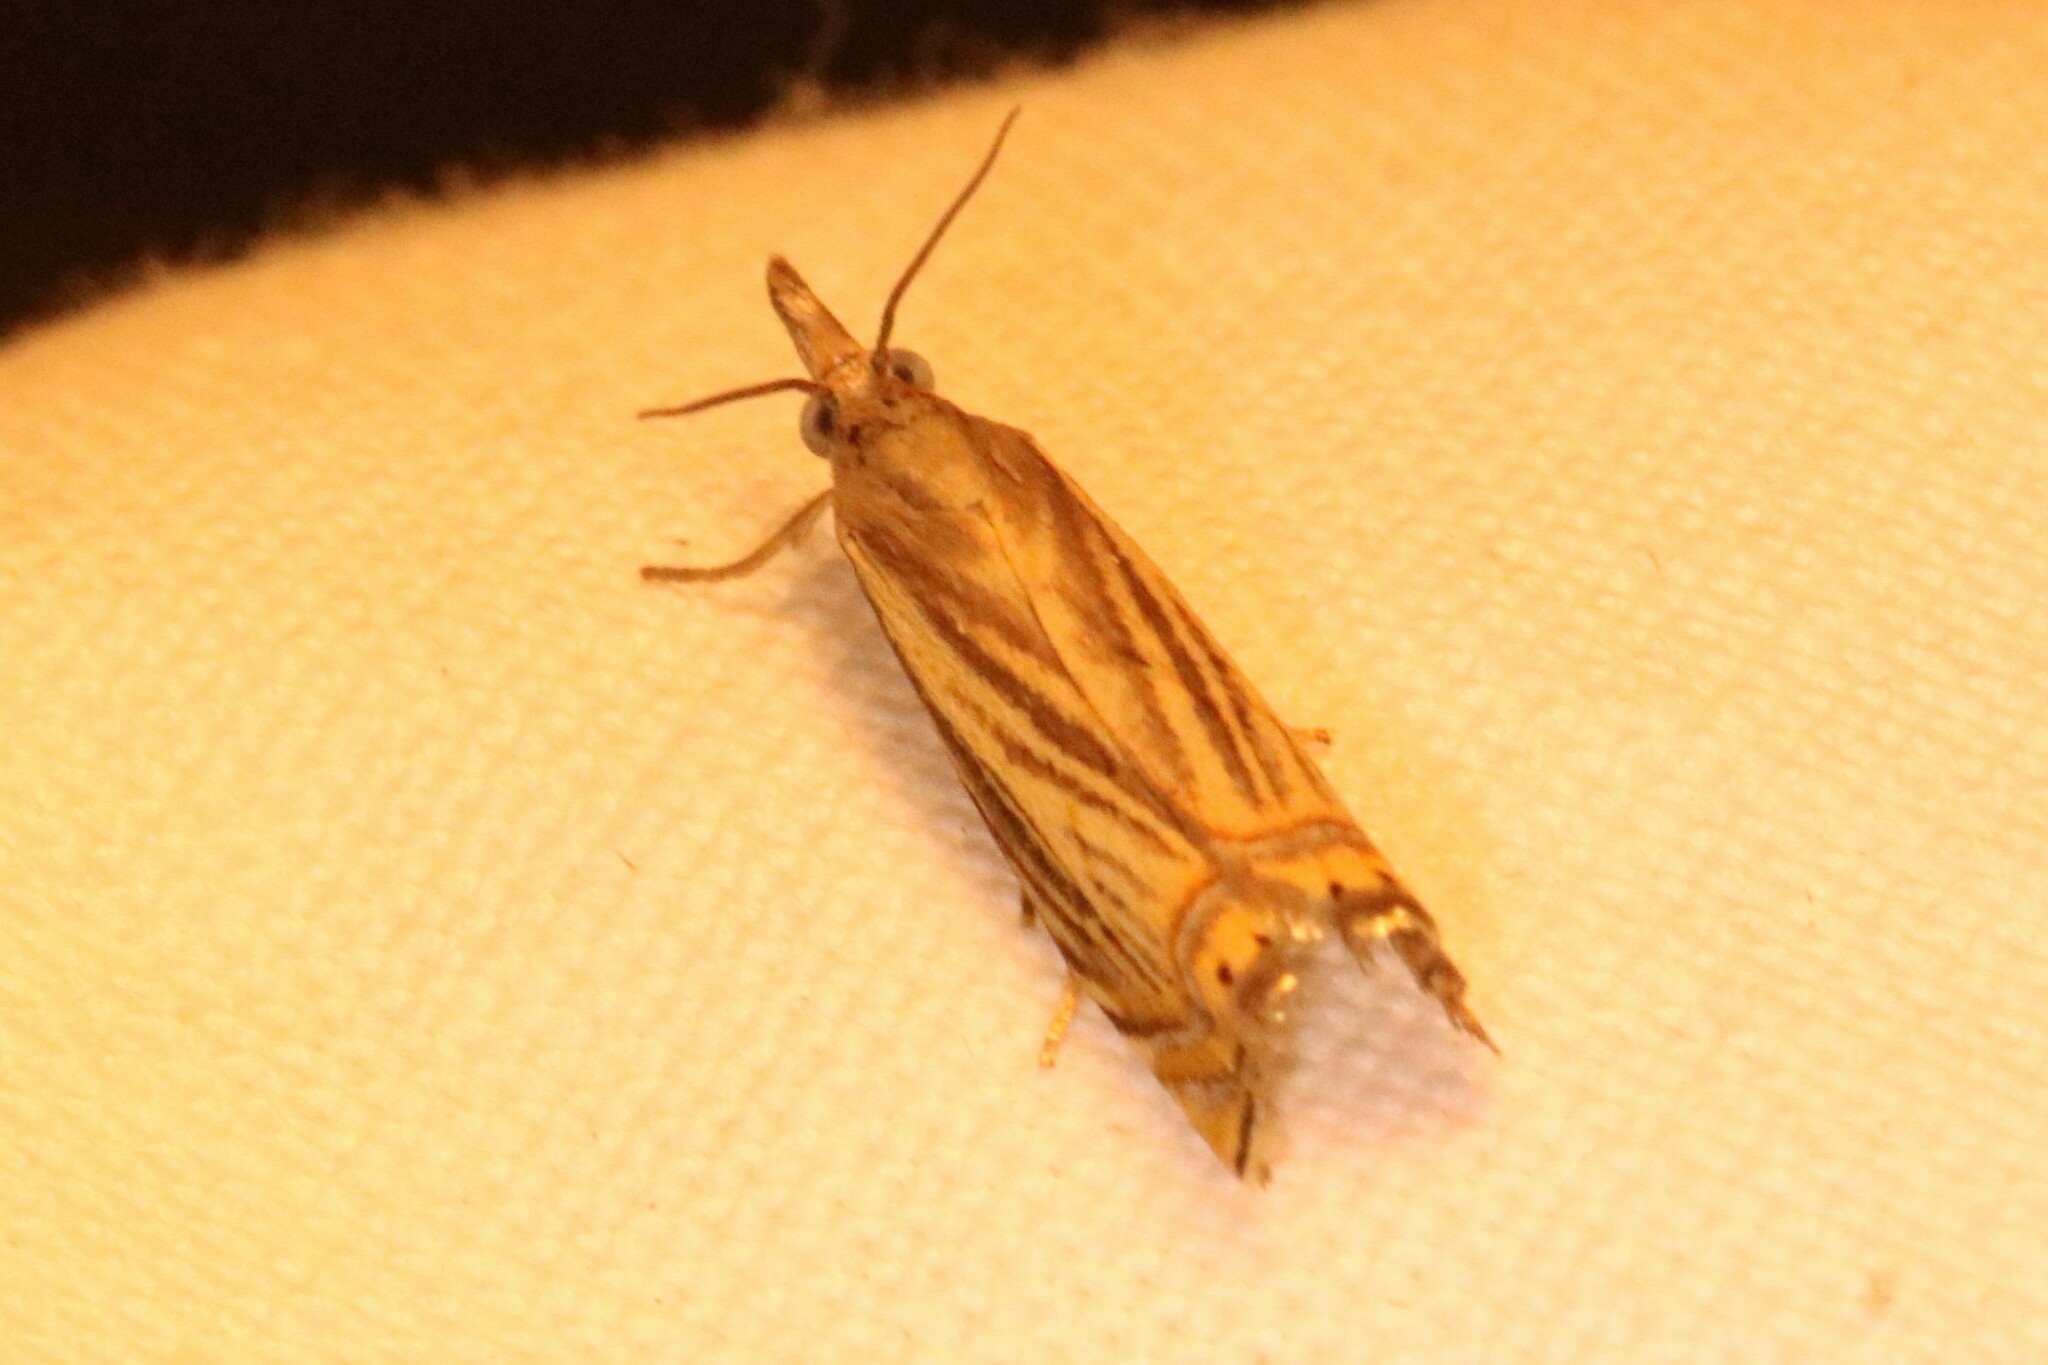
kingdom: Animalia
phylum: Arthropoda
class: Insecta
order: Lepidoptera
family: Crambidae
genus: Chrysoteuchia
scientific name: Chrysoteuchia topiarius
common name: Topiary grass-veneer
